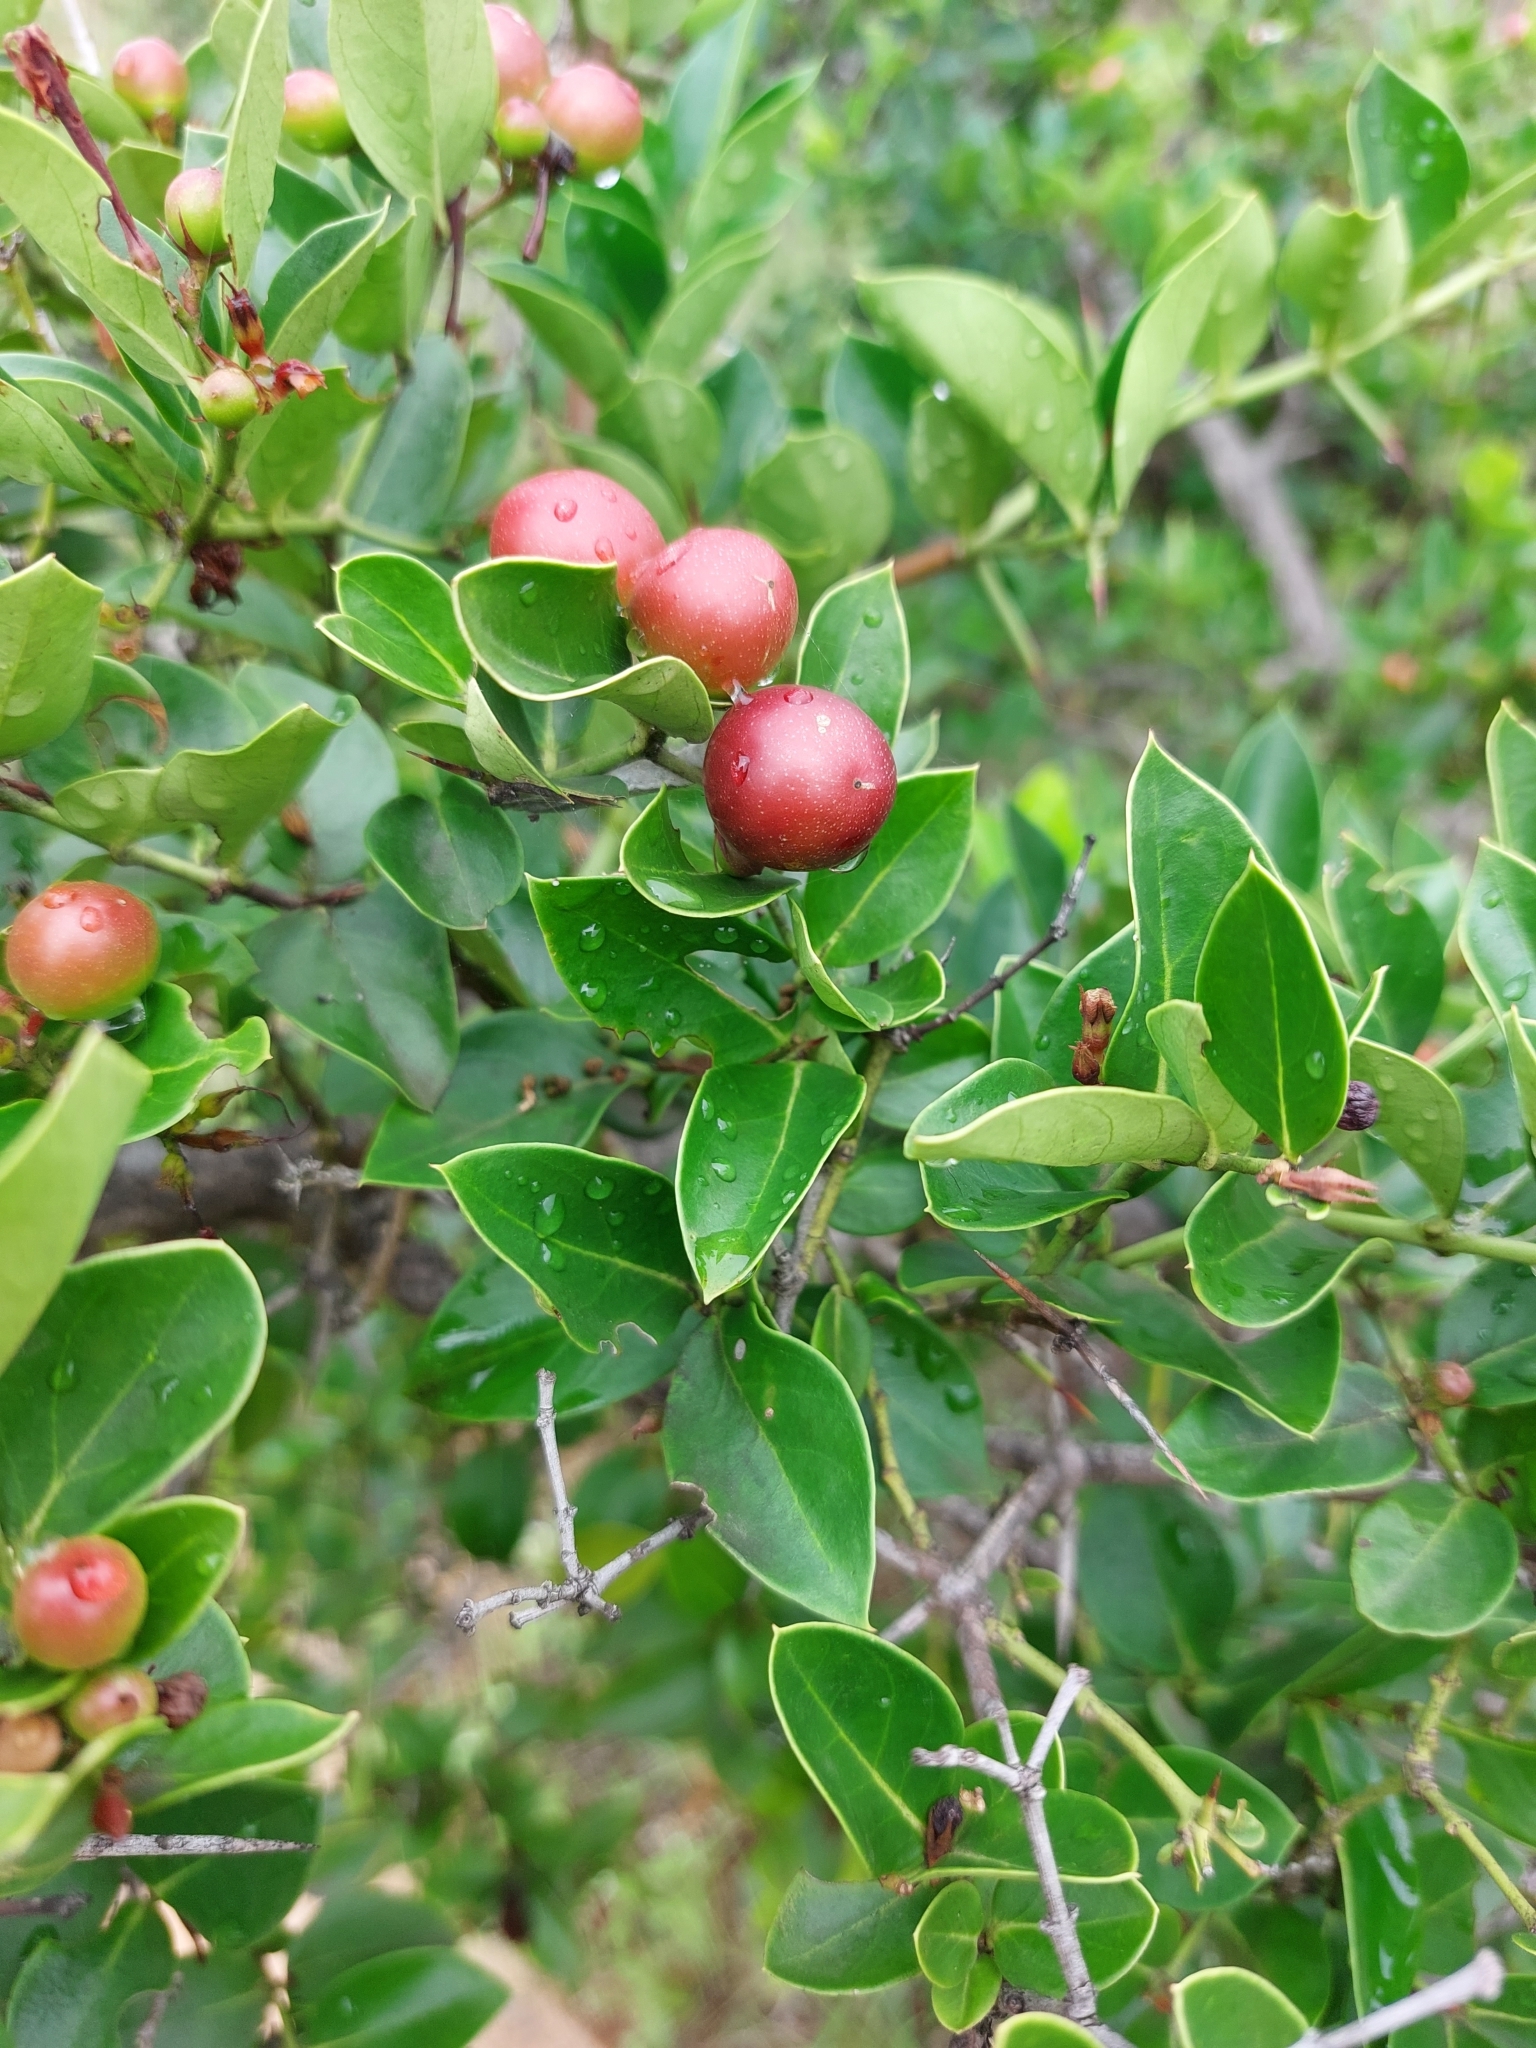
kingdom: Plantae
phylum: Tracheophyta
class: Magnoliopsida
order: Gentianales
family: Apocynaceae
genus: Carissa
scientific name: Carissa spinarum
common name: Egyptian carissa
